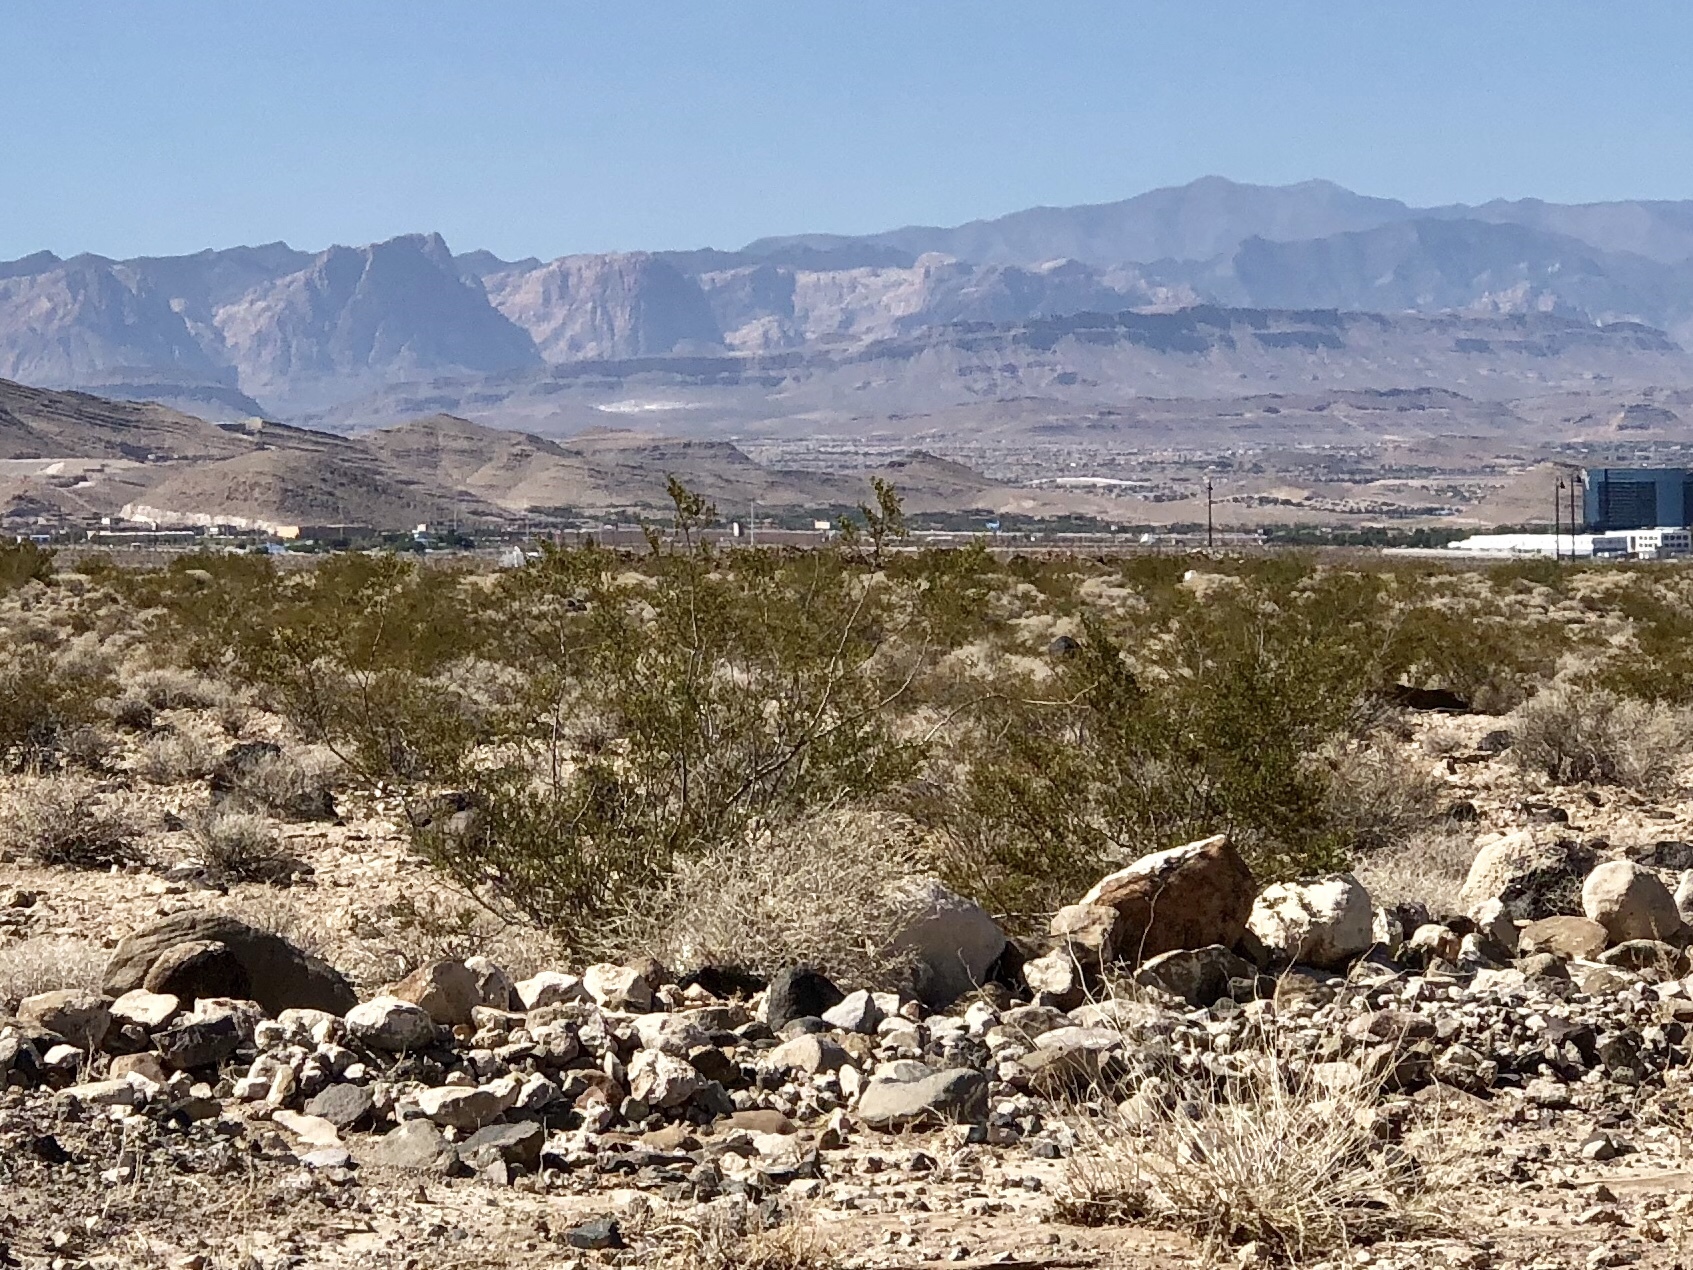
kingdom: Plantae
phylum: Tracheophyta
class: Magnoliopsida
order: Zygophyllales
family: Zygophyllaceae
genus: Larrea
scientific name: Larrea tridentata
